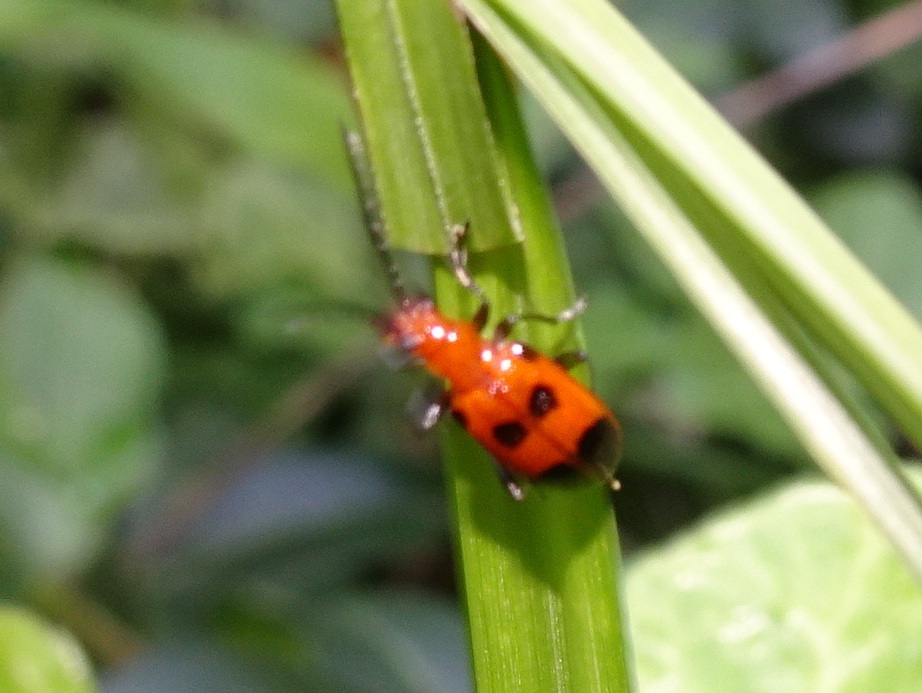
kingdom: Animalia
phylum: Arthropoda
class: Insecta
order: Coleoptera
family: Chrysomelidae
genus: Neolema
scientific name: Neolema sexpunctata
